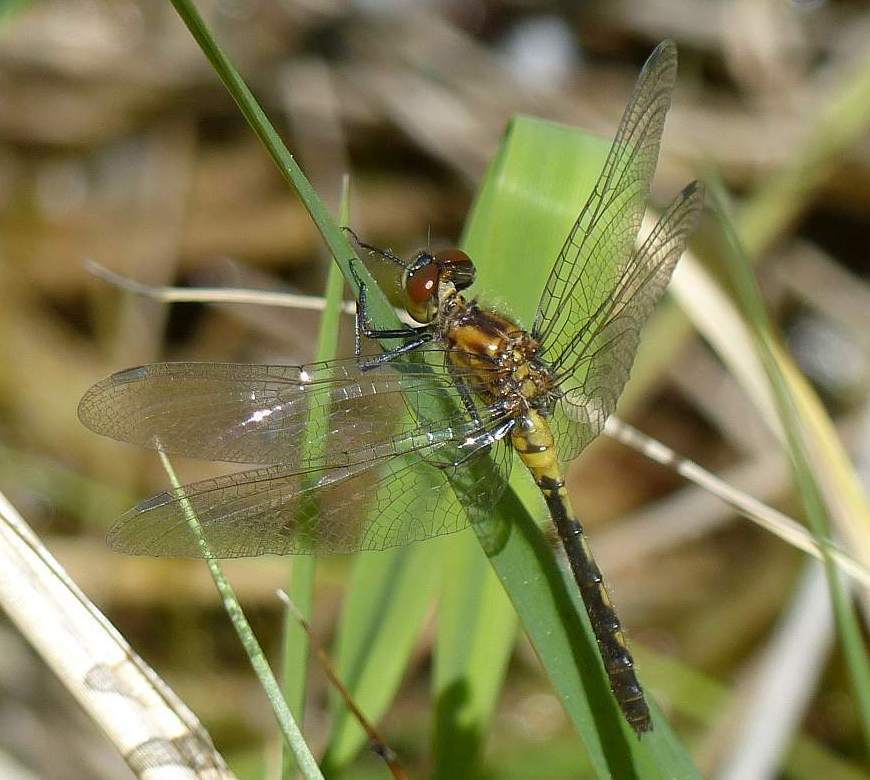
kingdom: Animalia
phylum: Arthropoda
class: Insecta
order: Odonata
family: Libellulidae
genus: Leucorrhinia
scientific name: Leucorrhinia intacta
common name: Dot-tailed whiteface
